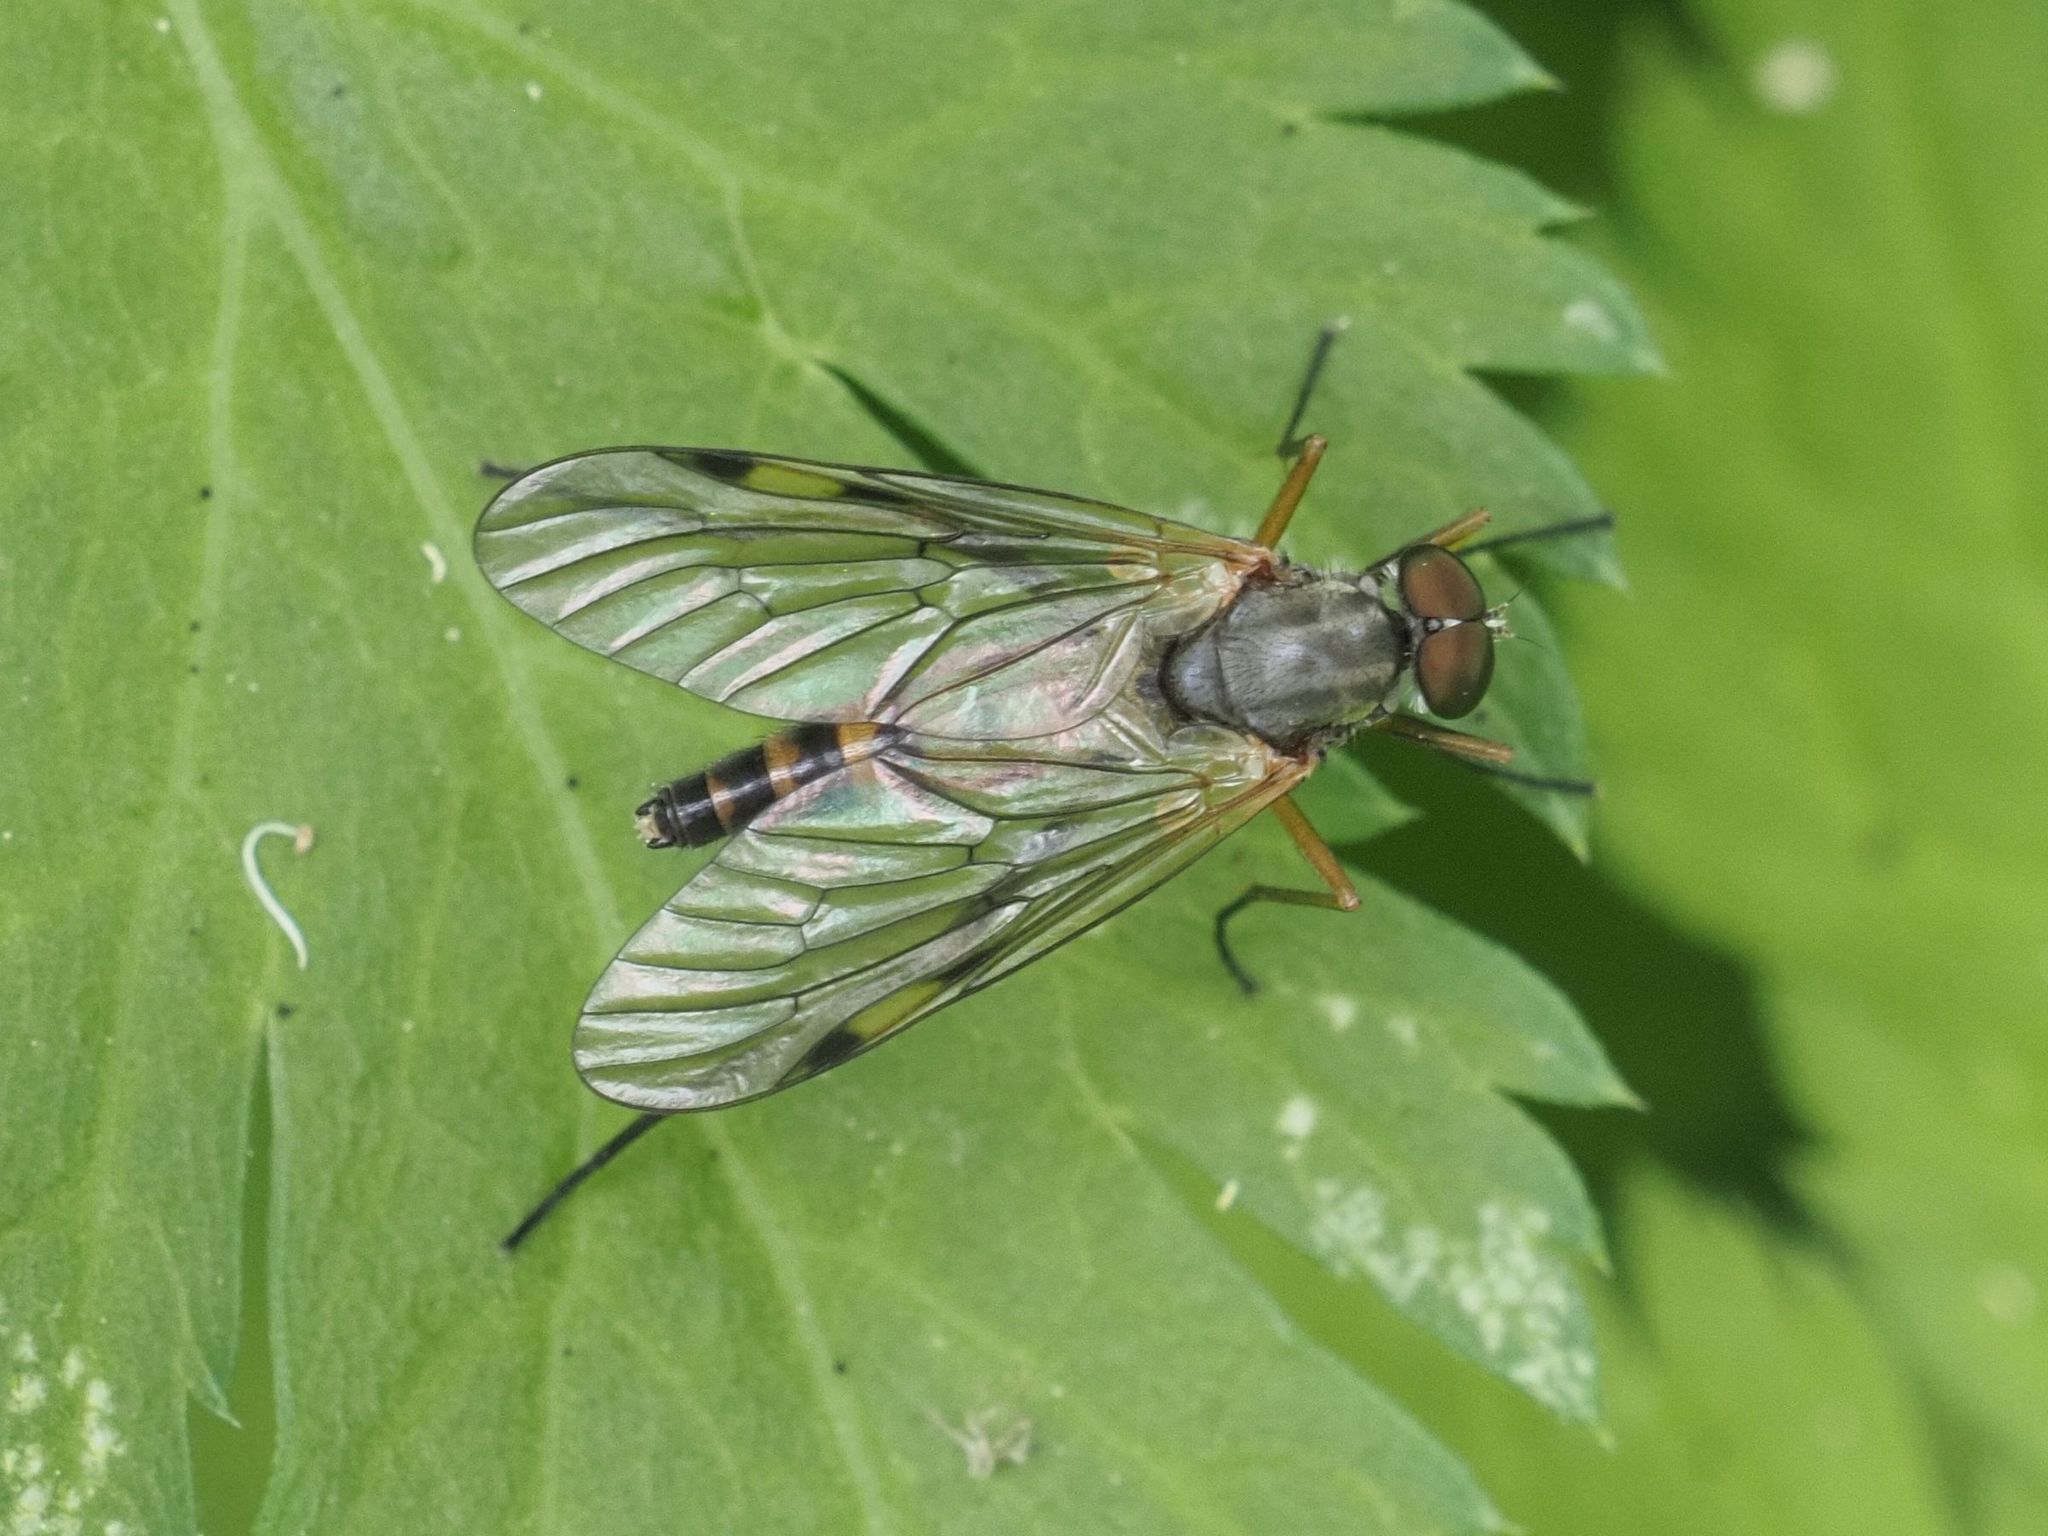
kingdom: Animalia
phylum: Arthropoda
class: Insecta
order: Diptera
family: Rhagionidae
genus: Rhagio
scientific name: Rhagio maculatus
